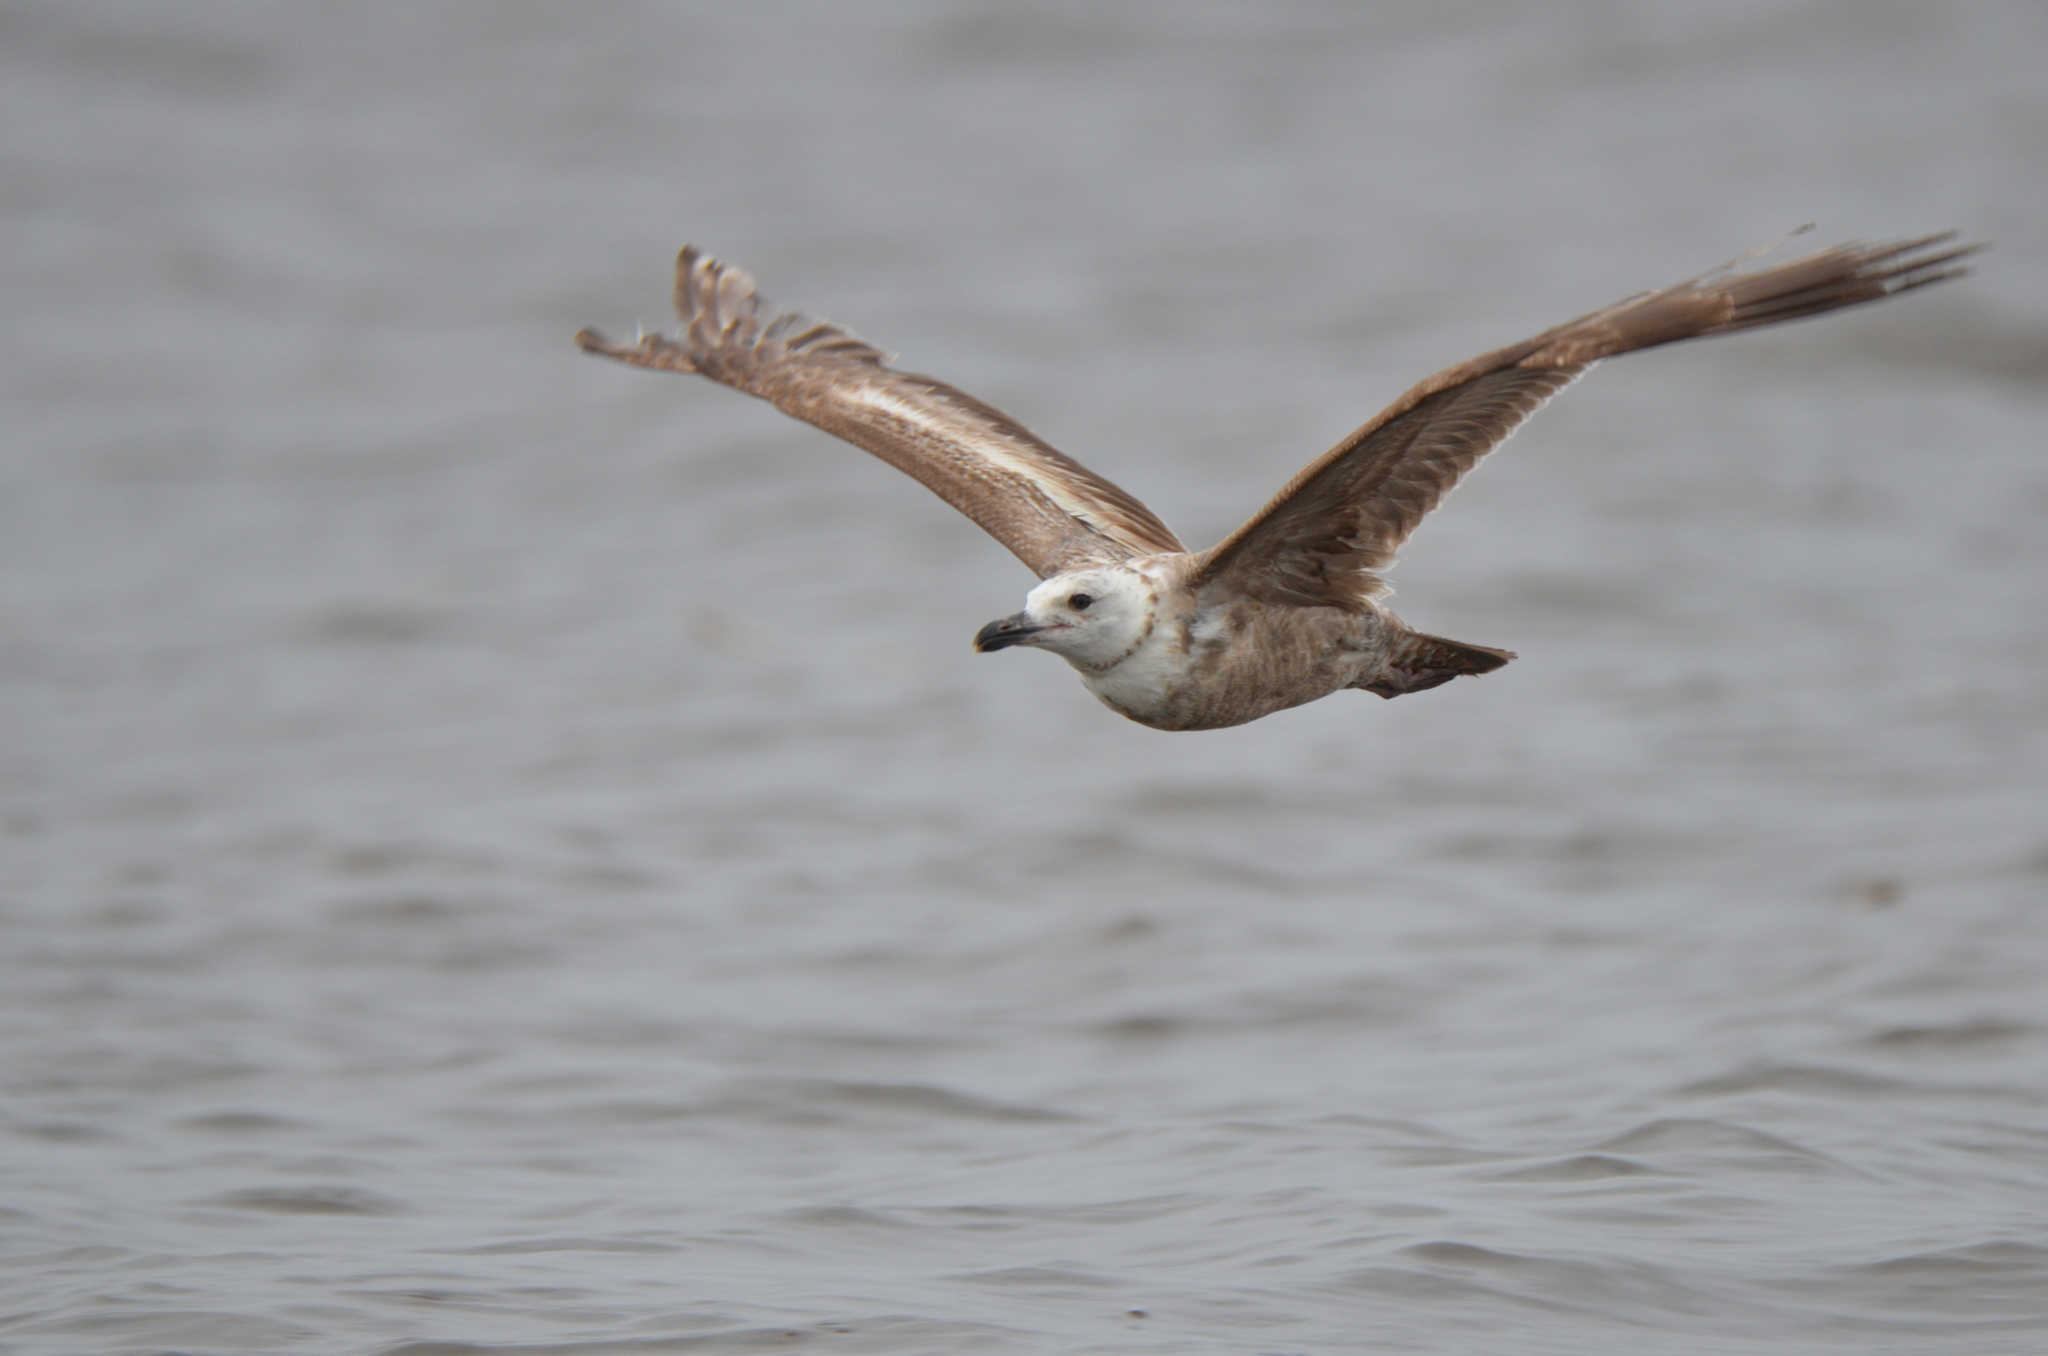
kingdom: Animalia
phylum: Chordata
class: Aves
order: Charadriiformes
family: Laridae
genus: Larus
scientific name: Larus argentatus
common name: Herring gull
